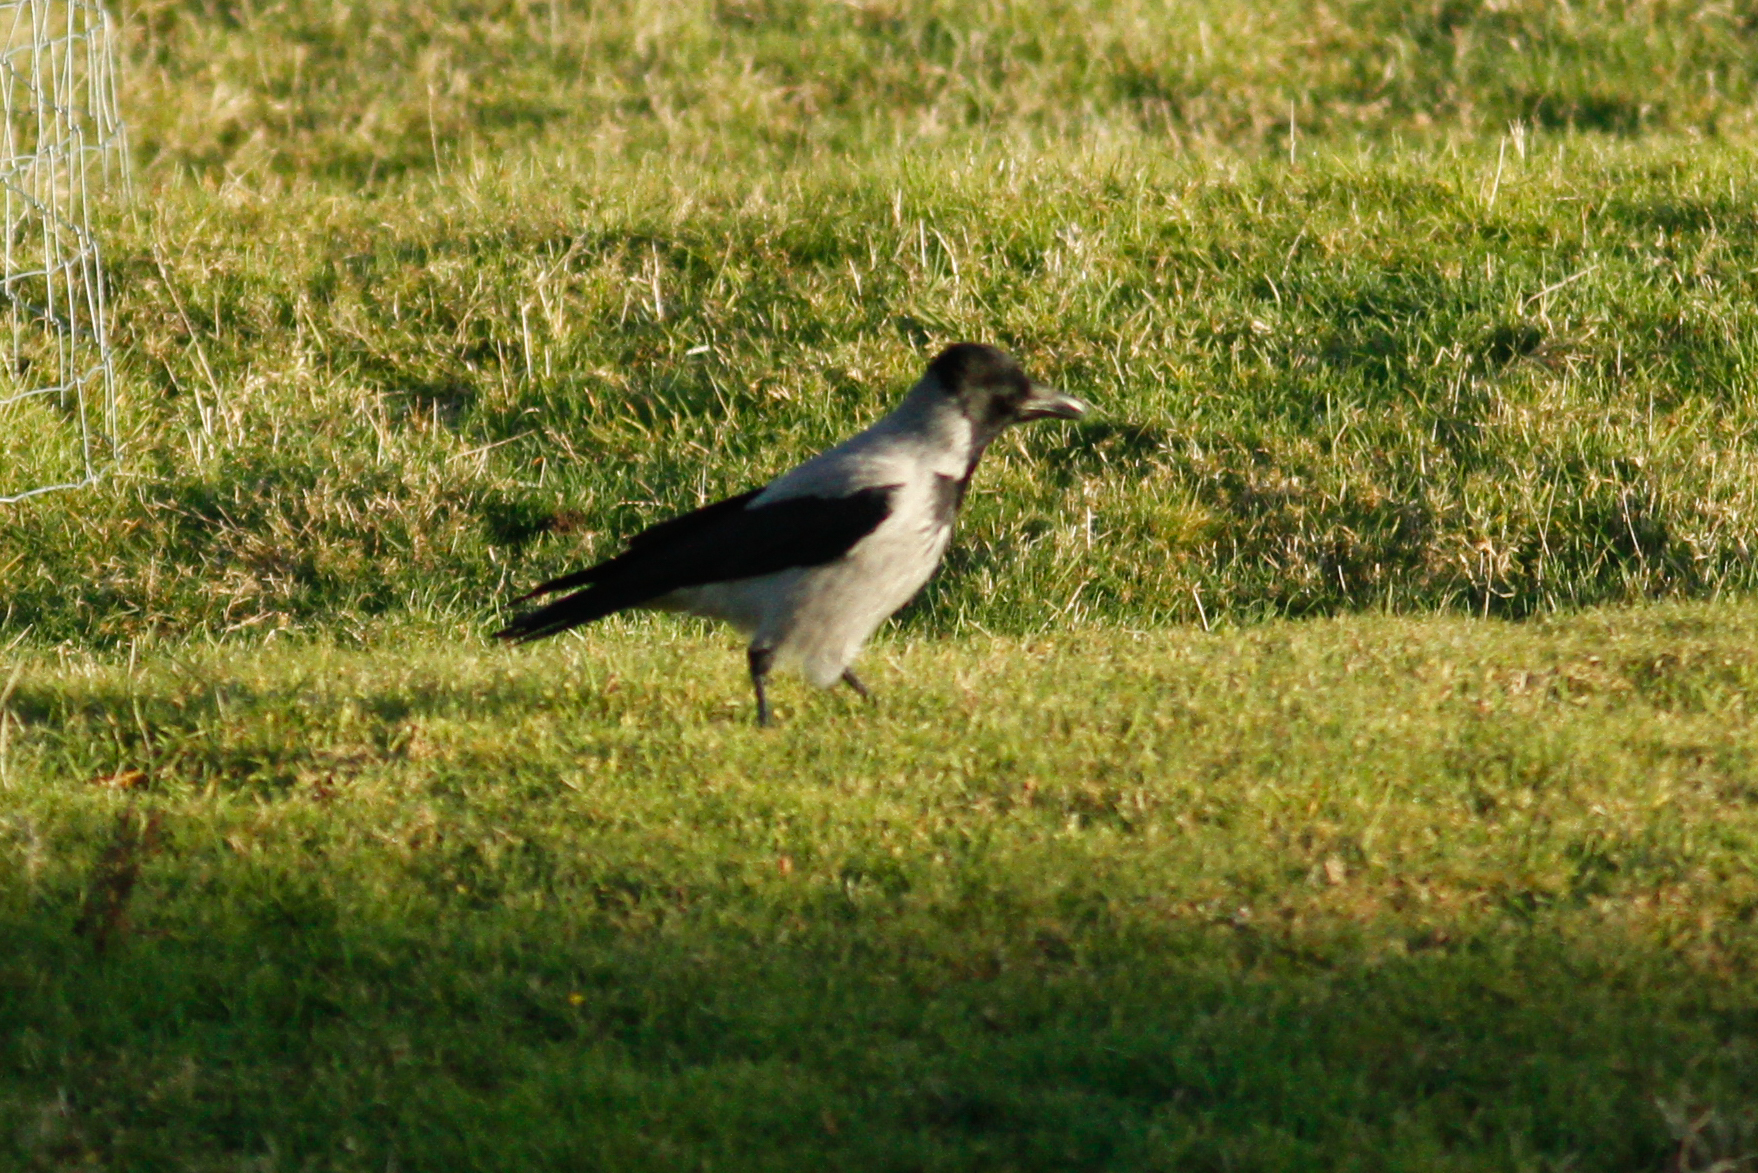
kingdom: Animalia
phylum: Chordata
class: Aves
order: Passeriformes
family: Corvidae
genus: Corvus
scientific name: Corvus cornix
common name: Hooded crow
